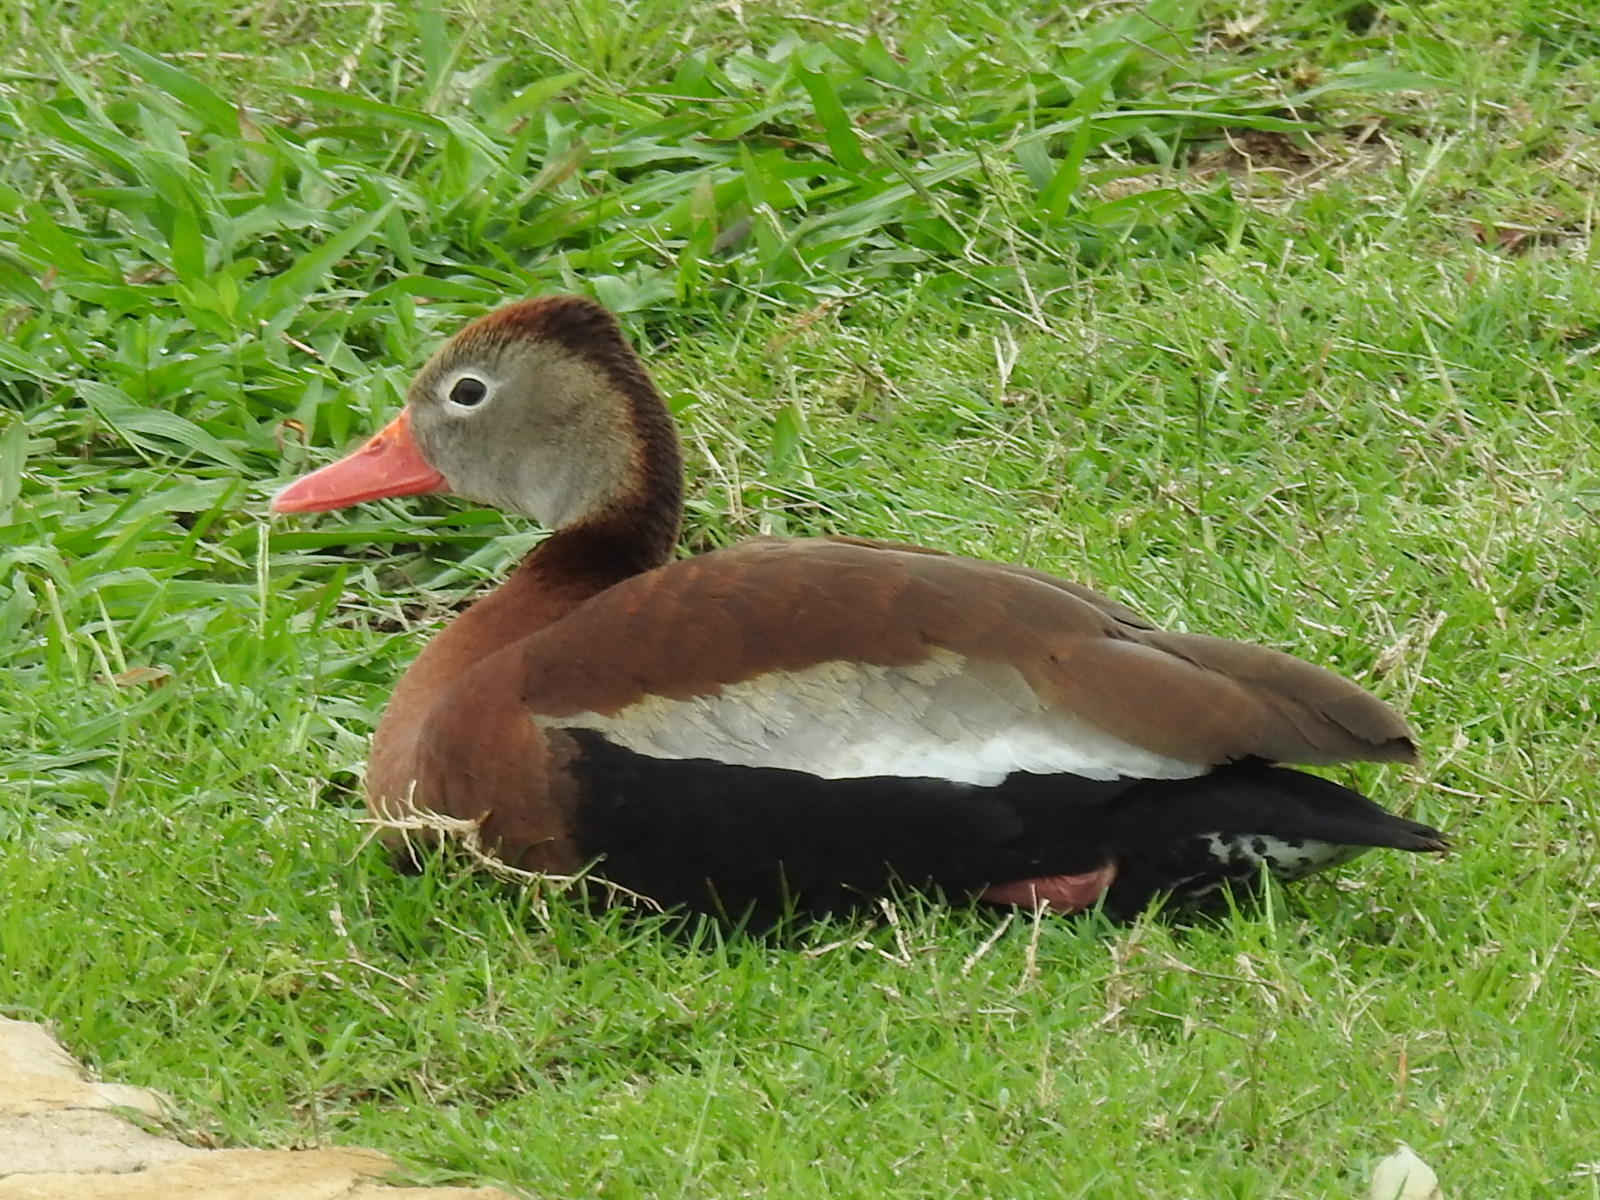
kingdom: Animalia
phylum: Chordata
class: Aves
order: Anseriformes
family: Anatidae
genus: Dendrocygna
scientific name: Dendrocygna autumnalis
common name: Black-bellied whistling duck
